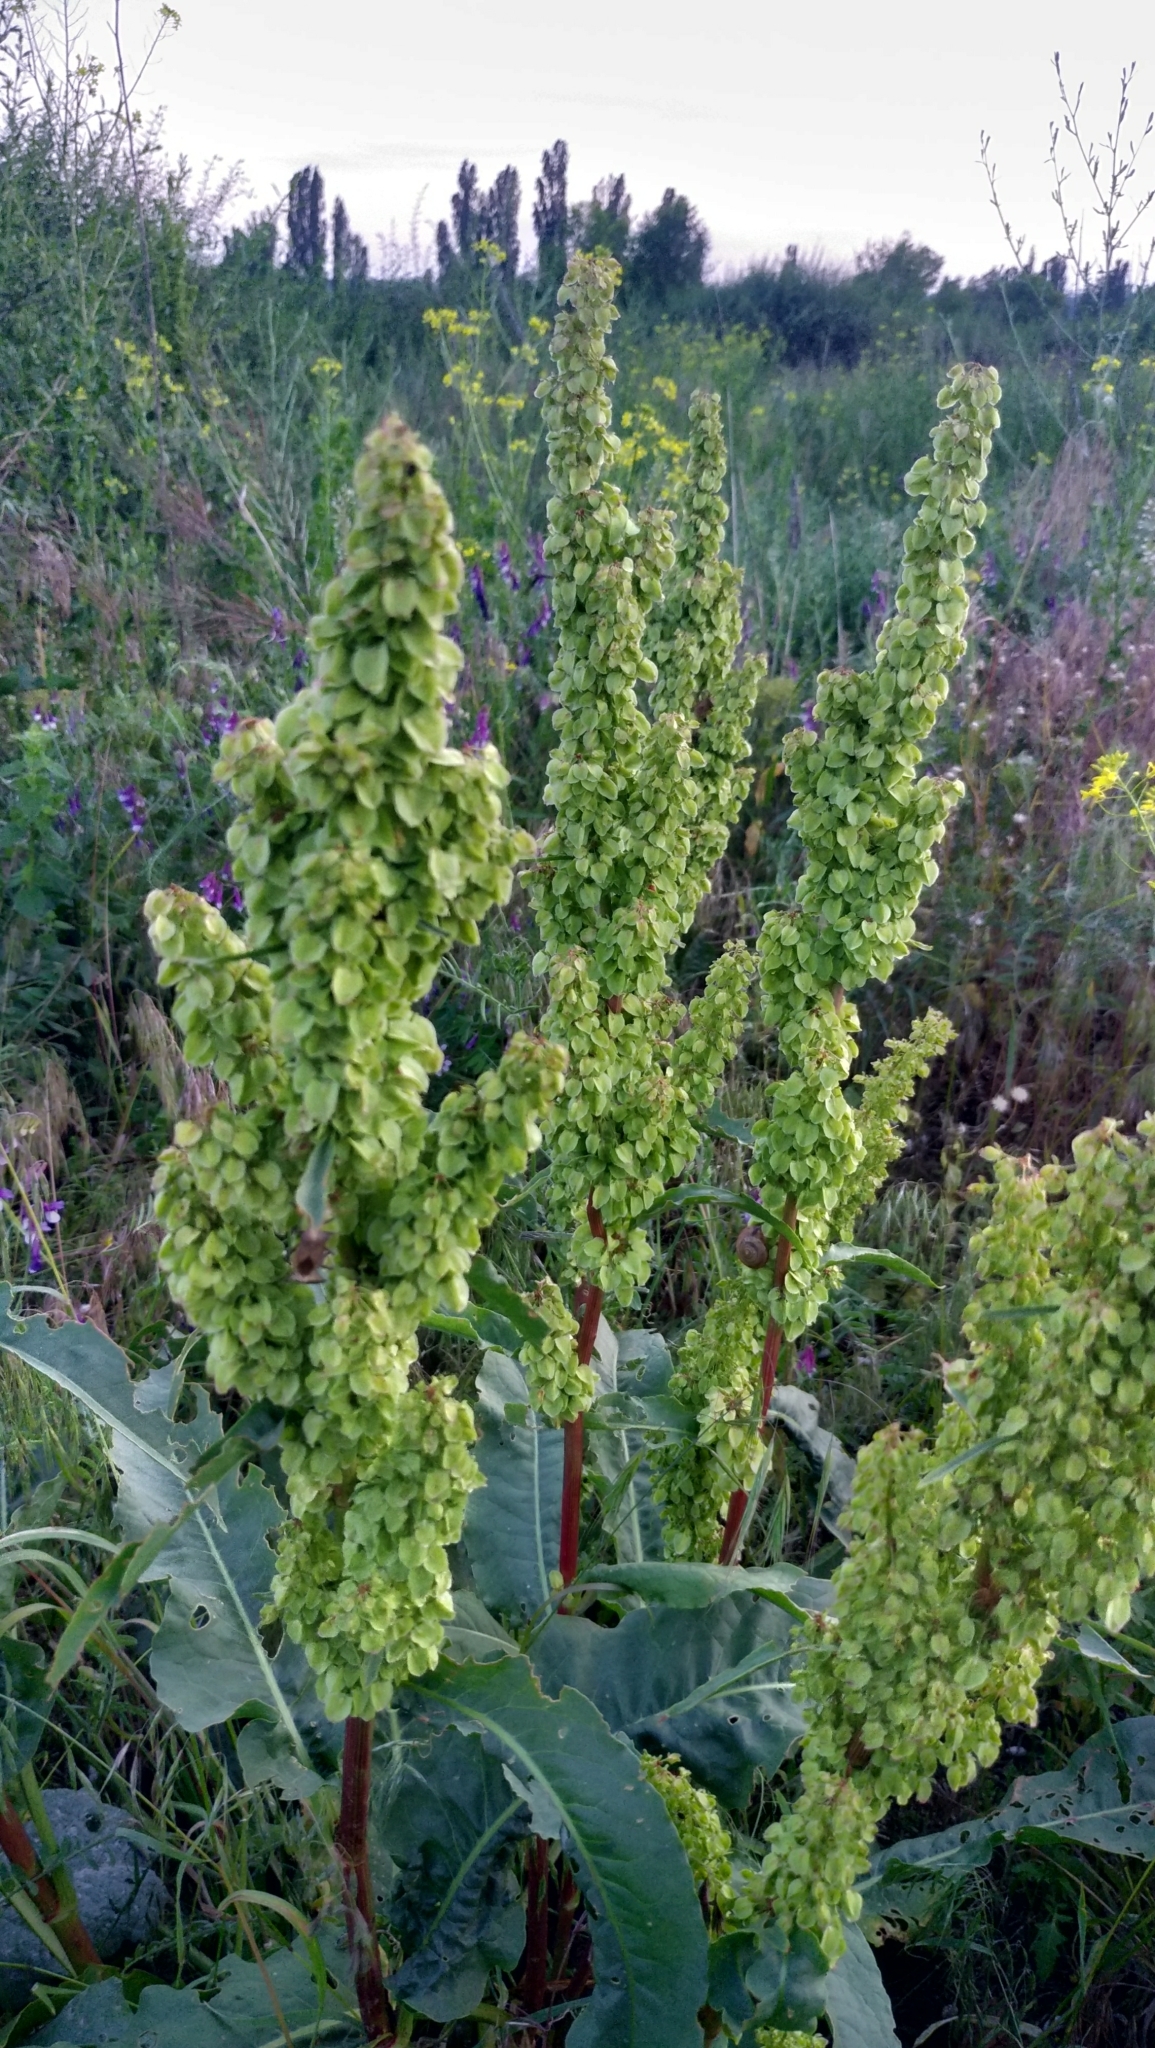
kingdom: Plantae
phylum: Tracheophyta
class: Magnoliopsida
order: Caryophyllales
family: Polygonaceae
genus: Rumex
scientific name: Rumex confertus
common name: Russian dock
